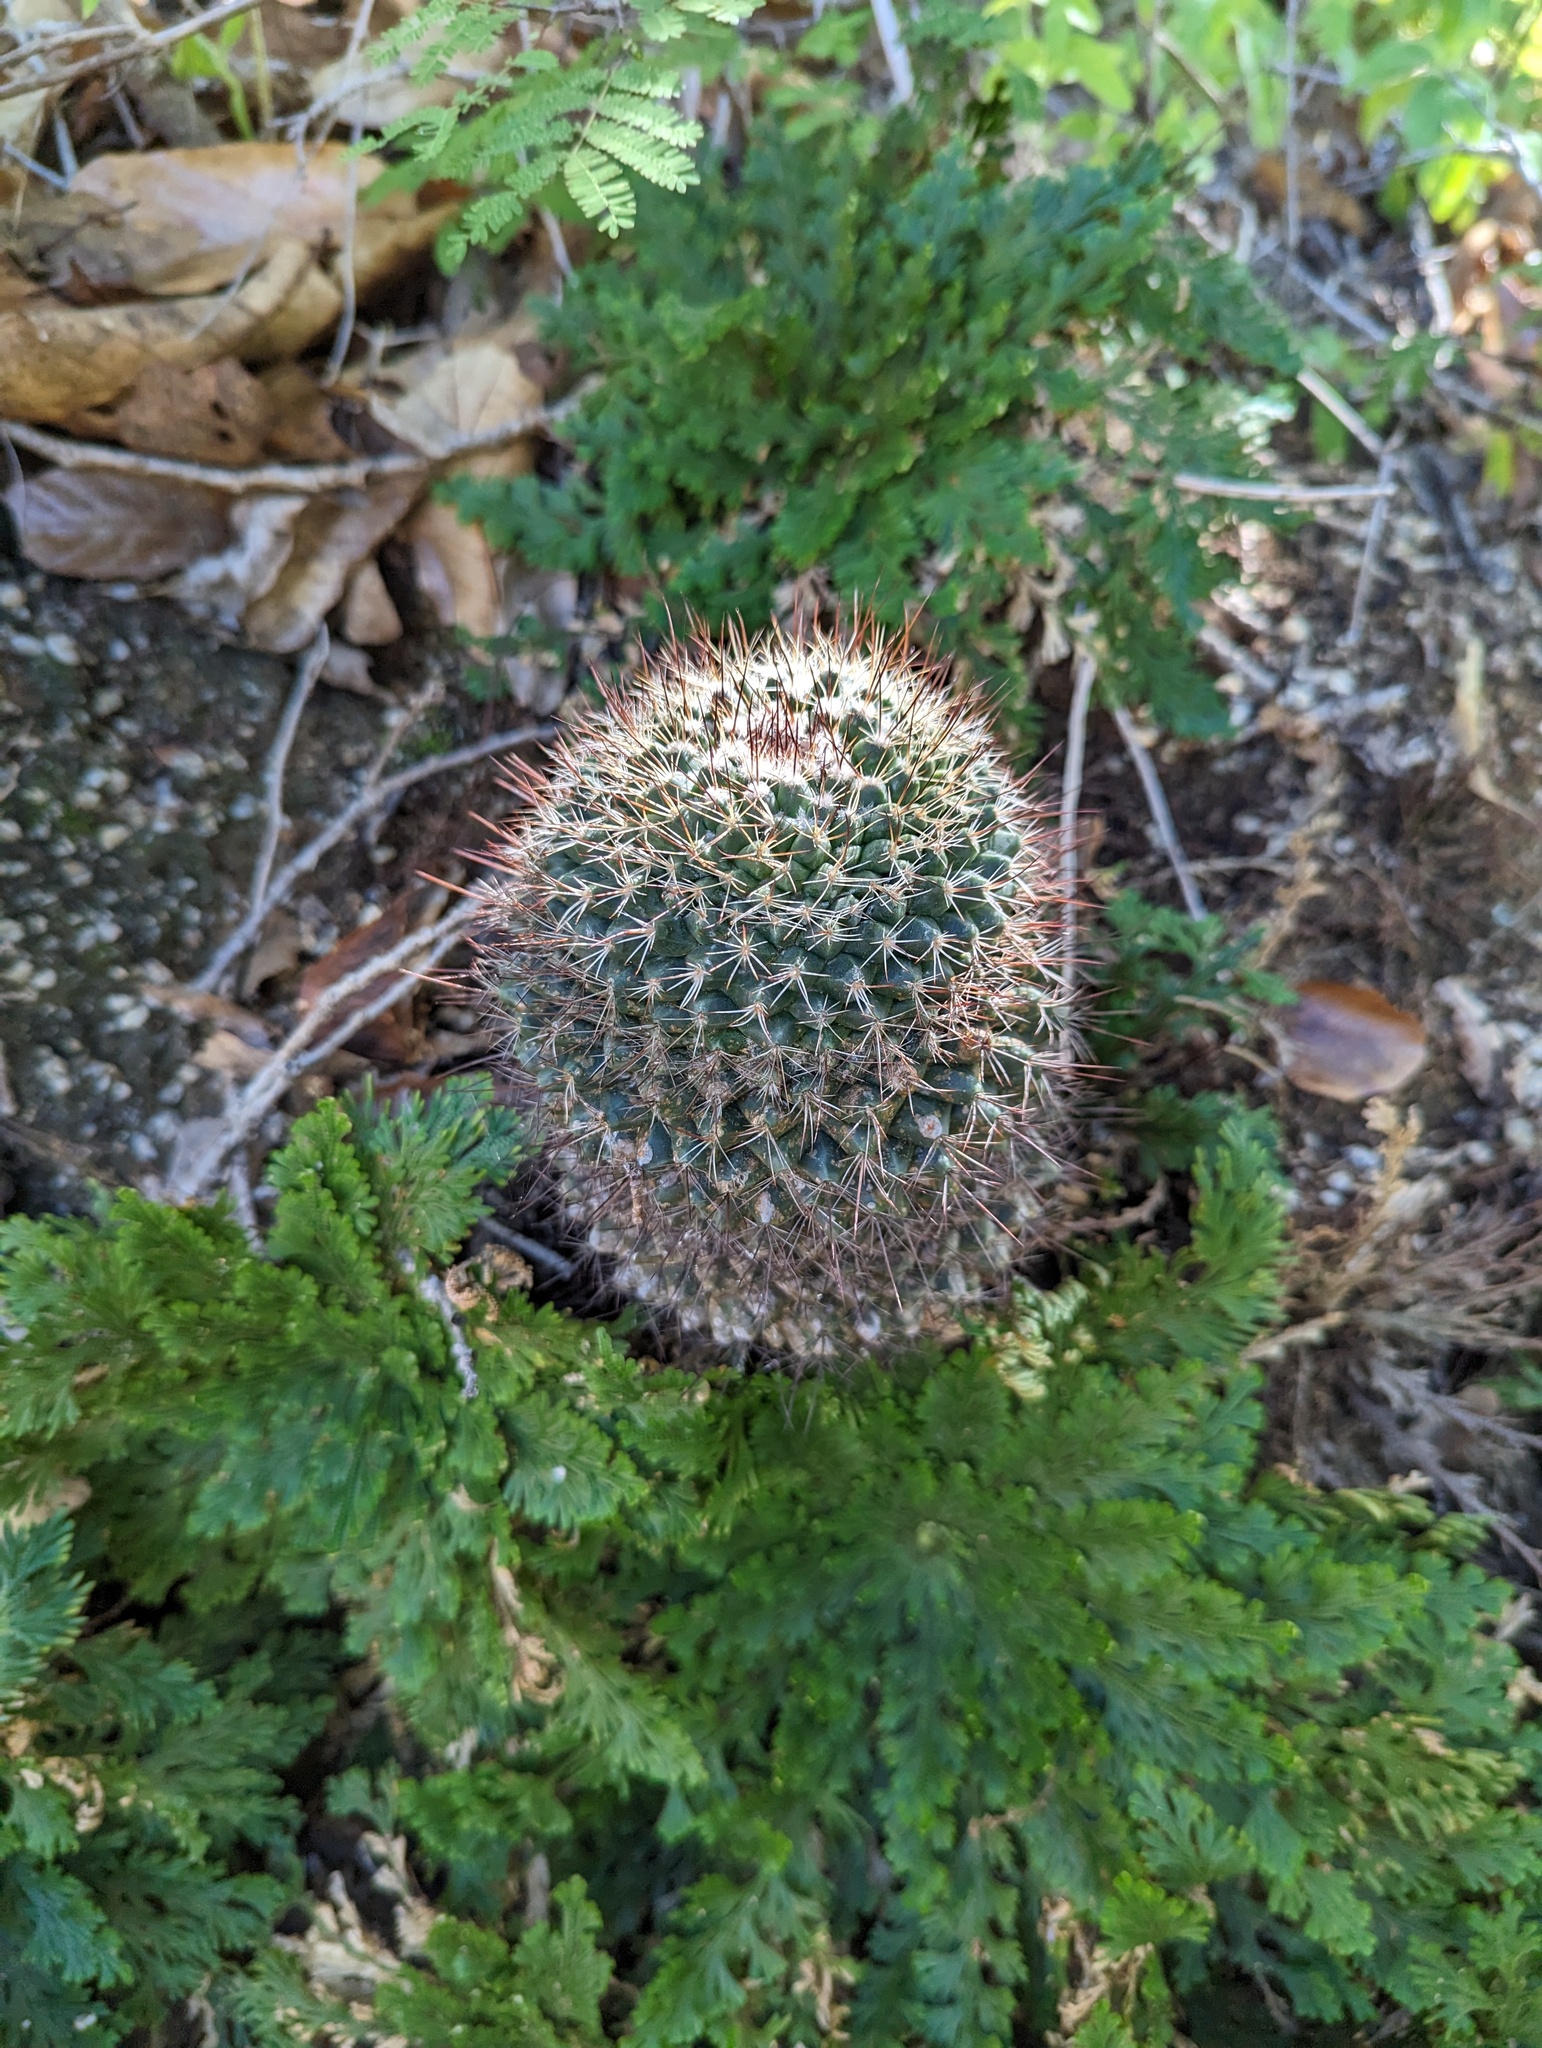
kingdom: Plantae
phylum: Tracheophyta
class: Magnoliopsida
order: Caryophyllales
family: Cactaceae
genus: Mammillaria
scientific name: Mammillaria petrophila
